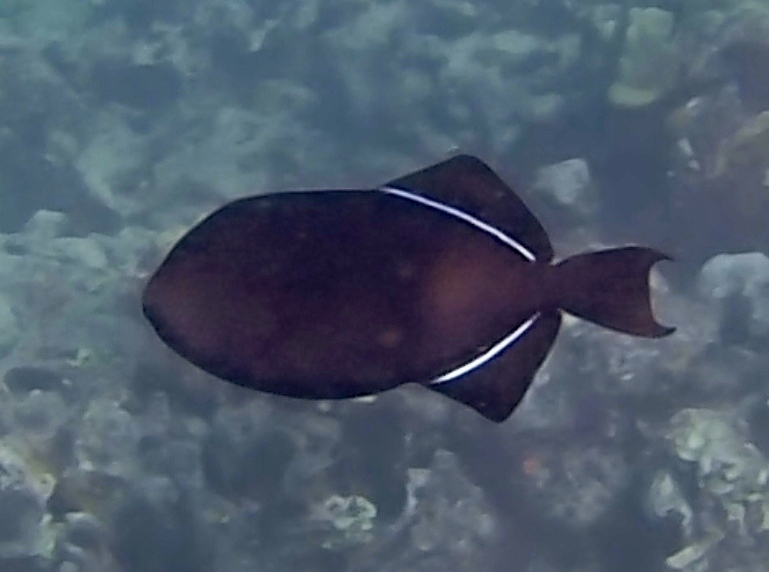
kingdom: Animalia
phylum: Chordata
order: Tetraodontiformes
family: Balistidae
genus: Melichthys
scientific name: Melichthys niger
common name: Black durgon
